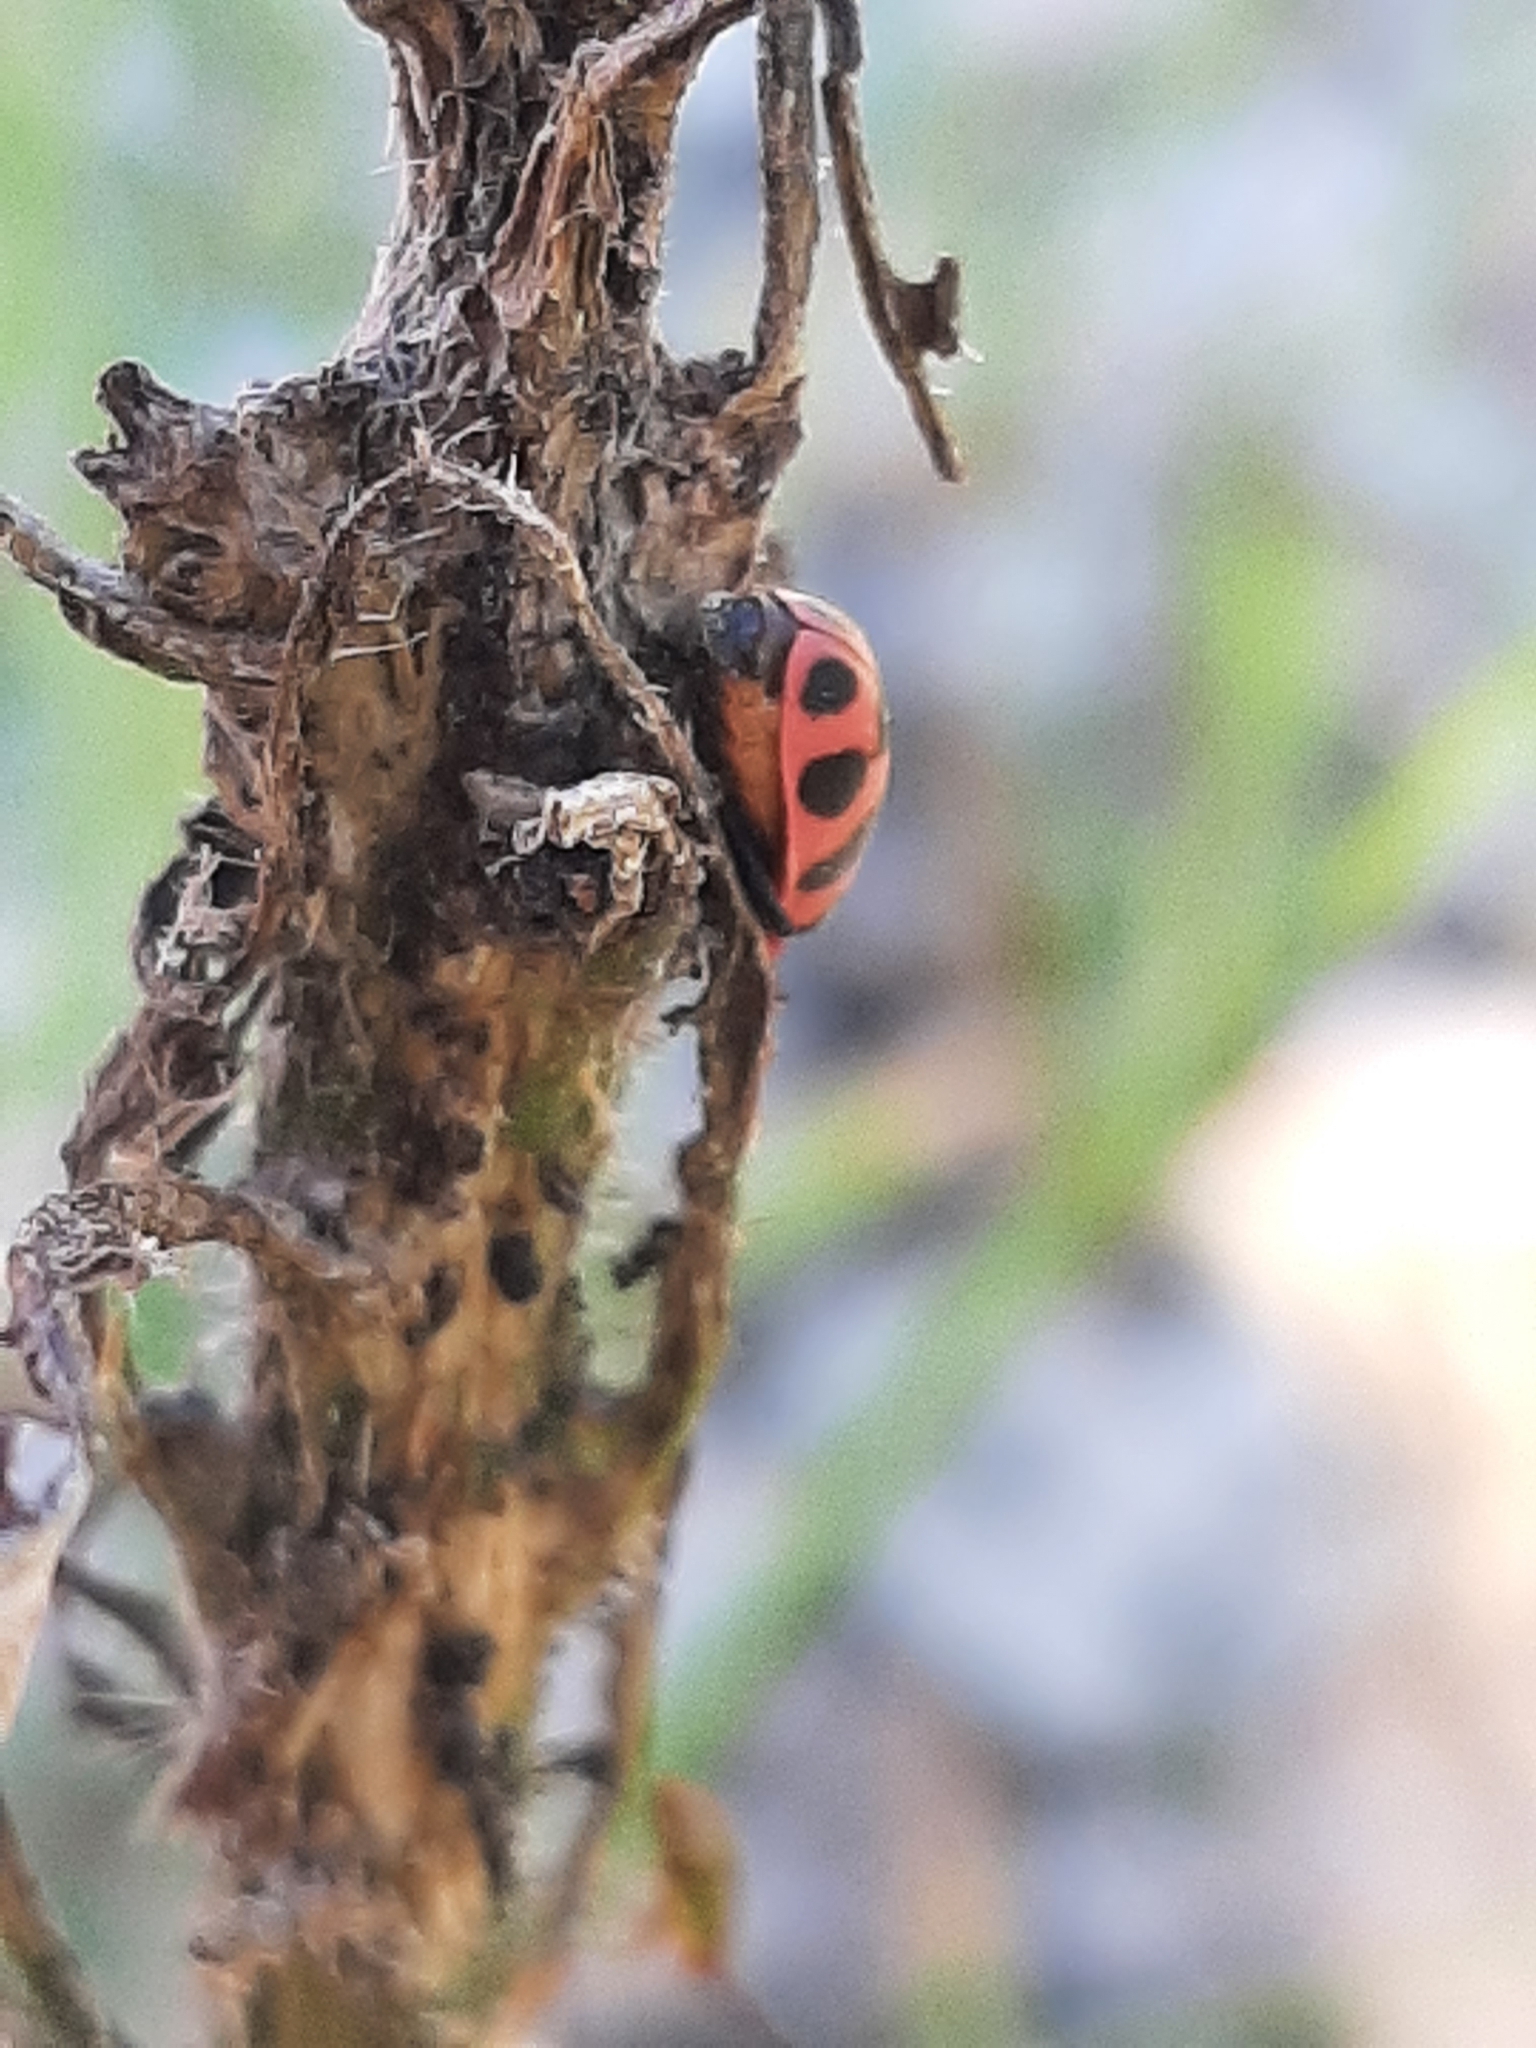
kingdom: Animalia
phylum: Arthropoda
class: Insecta
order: Coleoptera
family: Coccinellidae
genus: Coleomegilla
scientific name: Coleomegilla maculata
